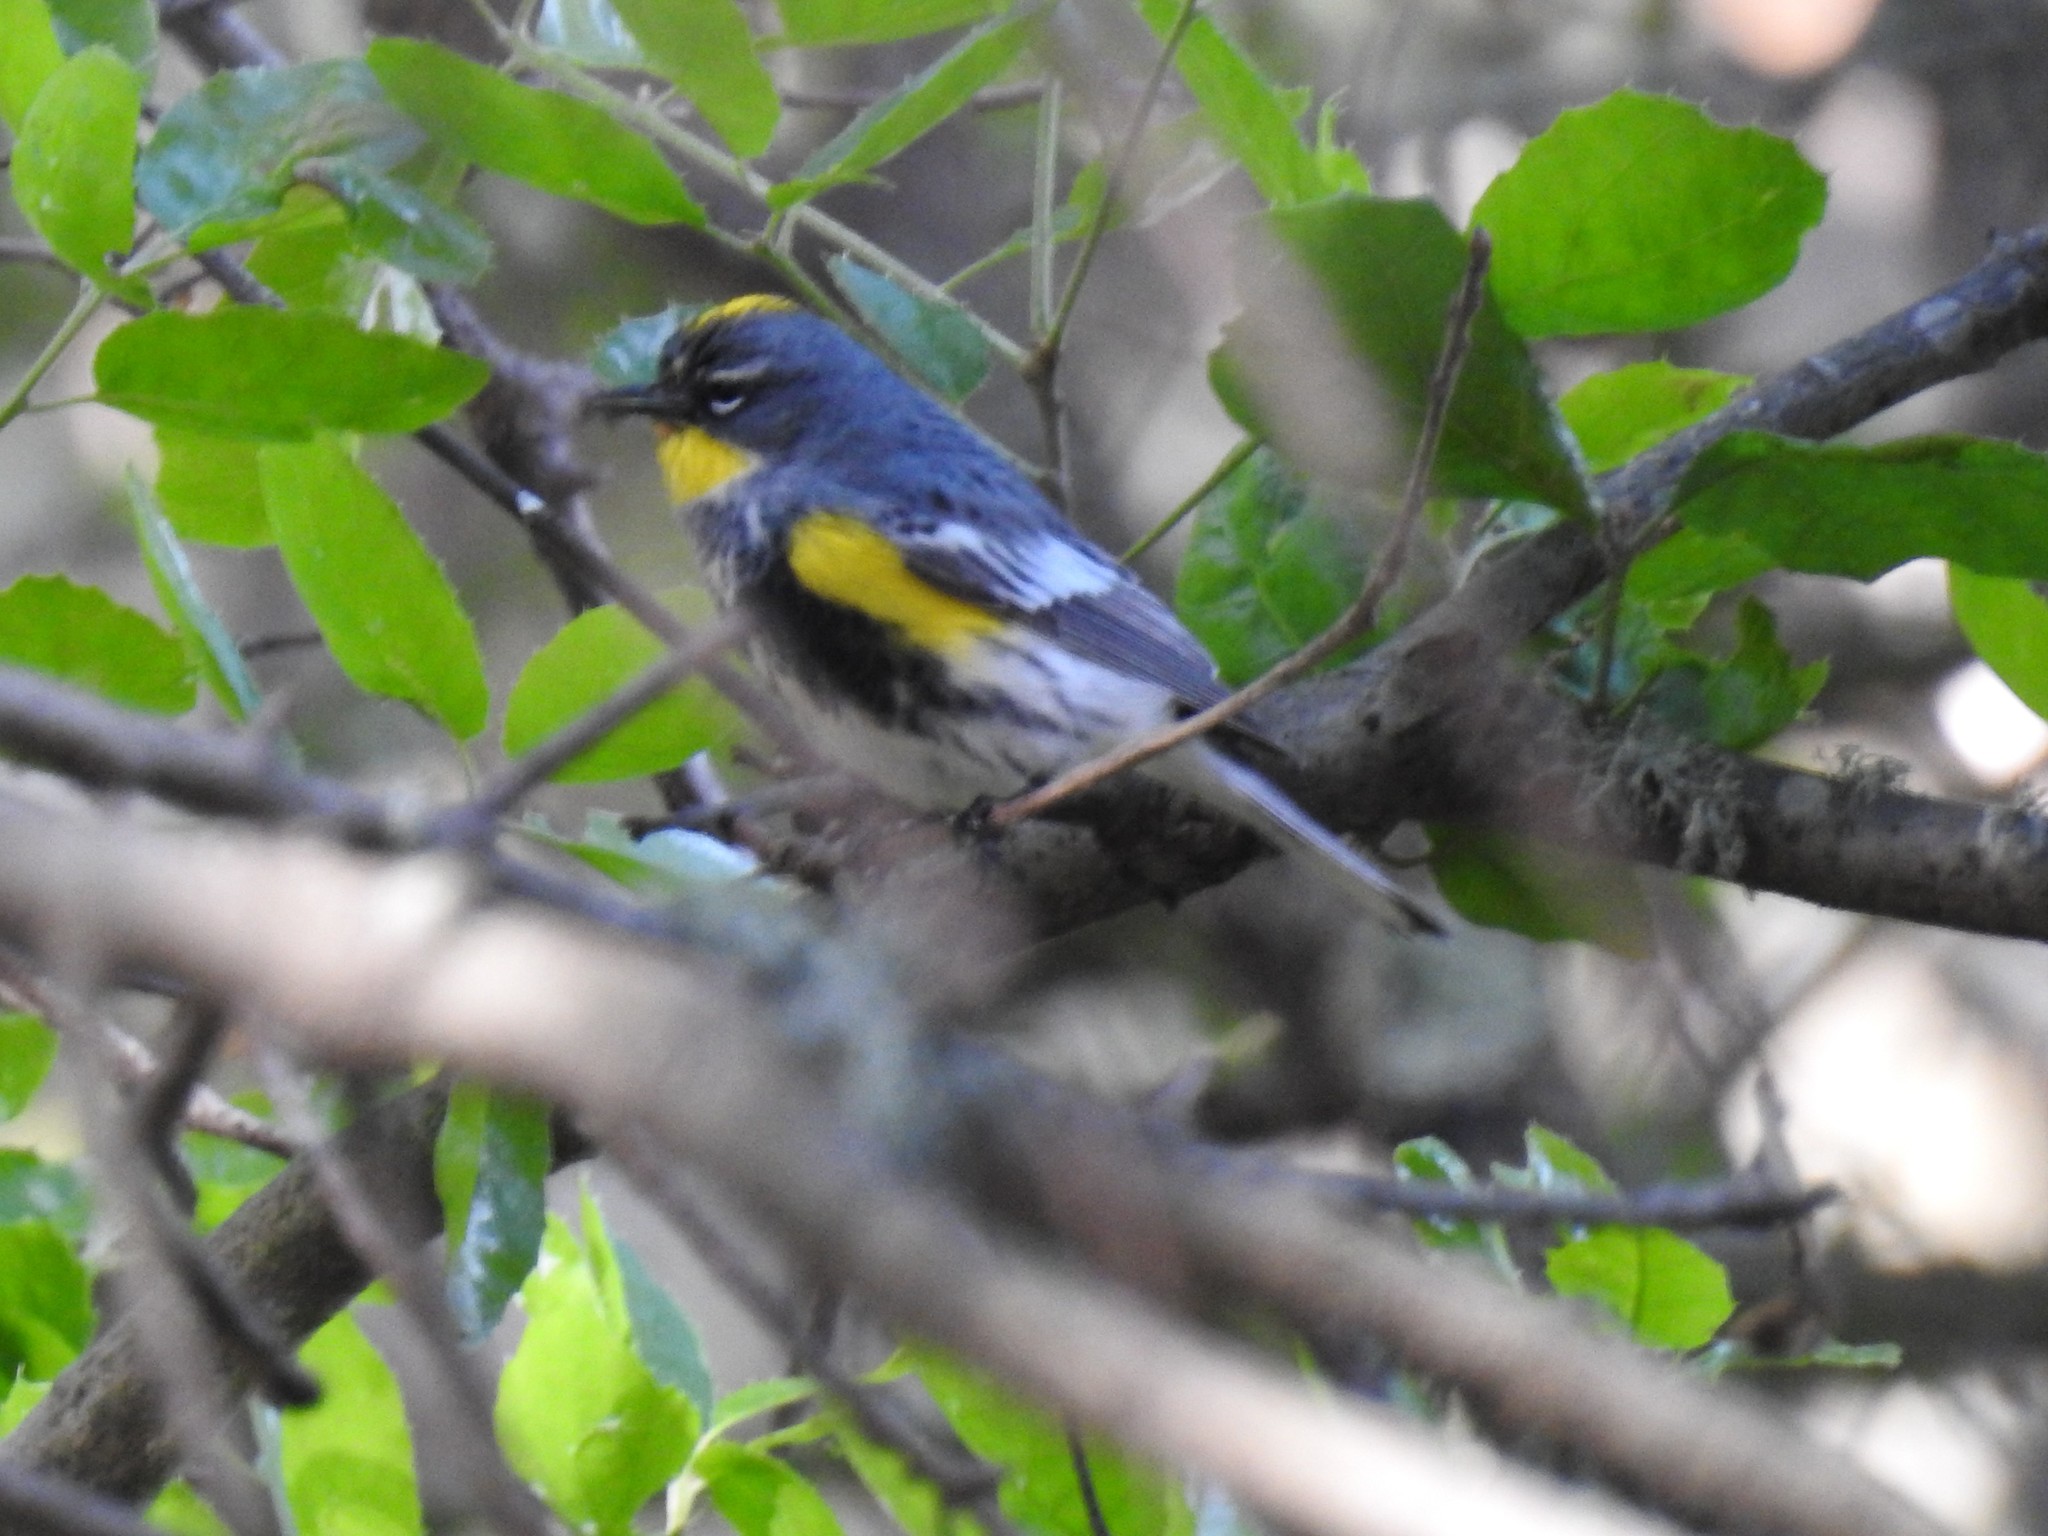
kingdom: Animalia
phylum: Chordata
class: Aves
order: Passeriformes
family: Parulidae
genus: Setophaga
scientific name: Setophaga coronata
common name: Myrtle warbler
